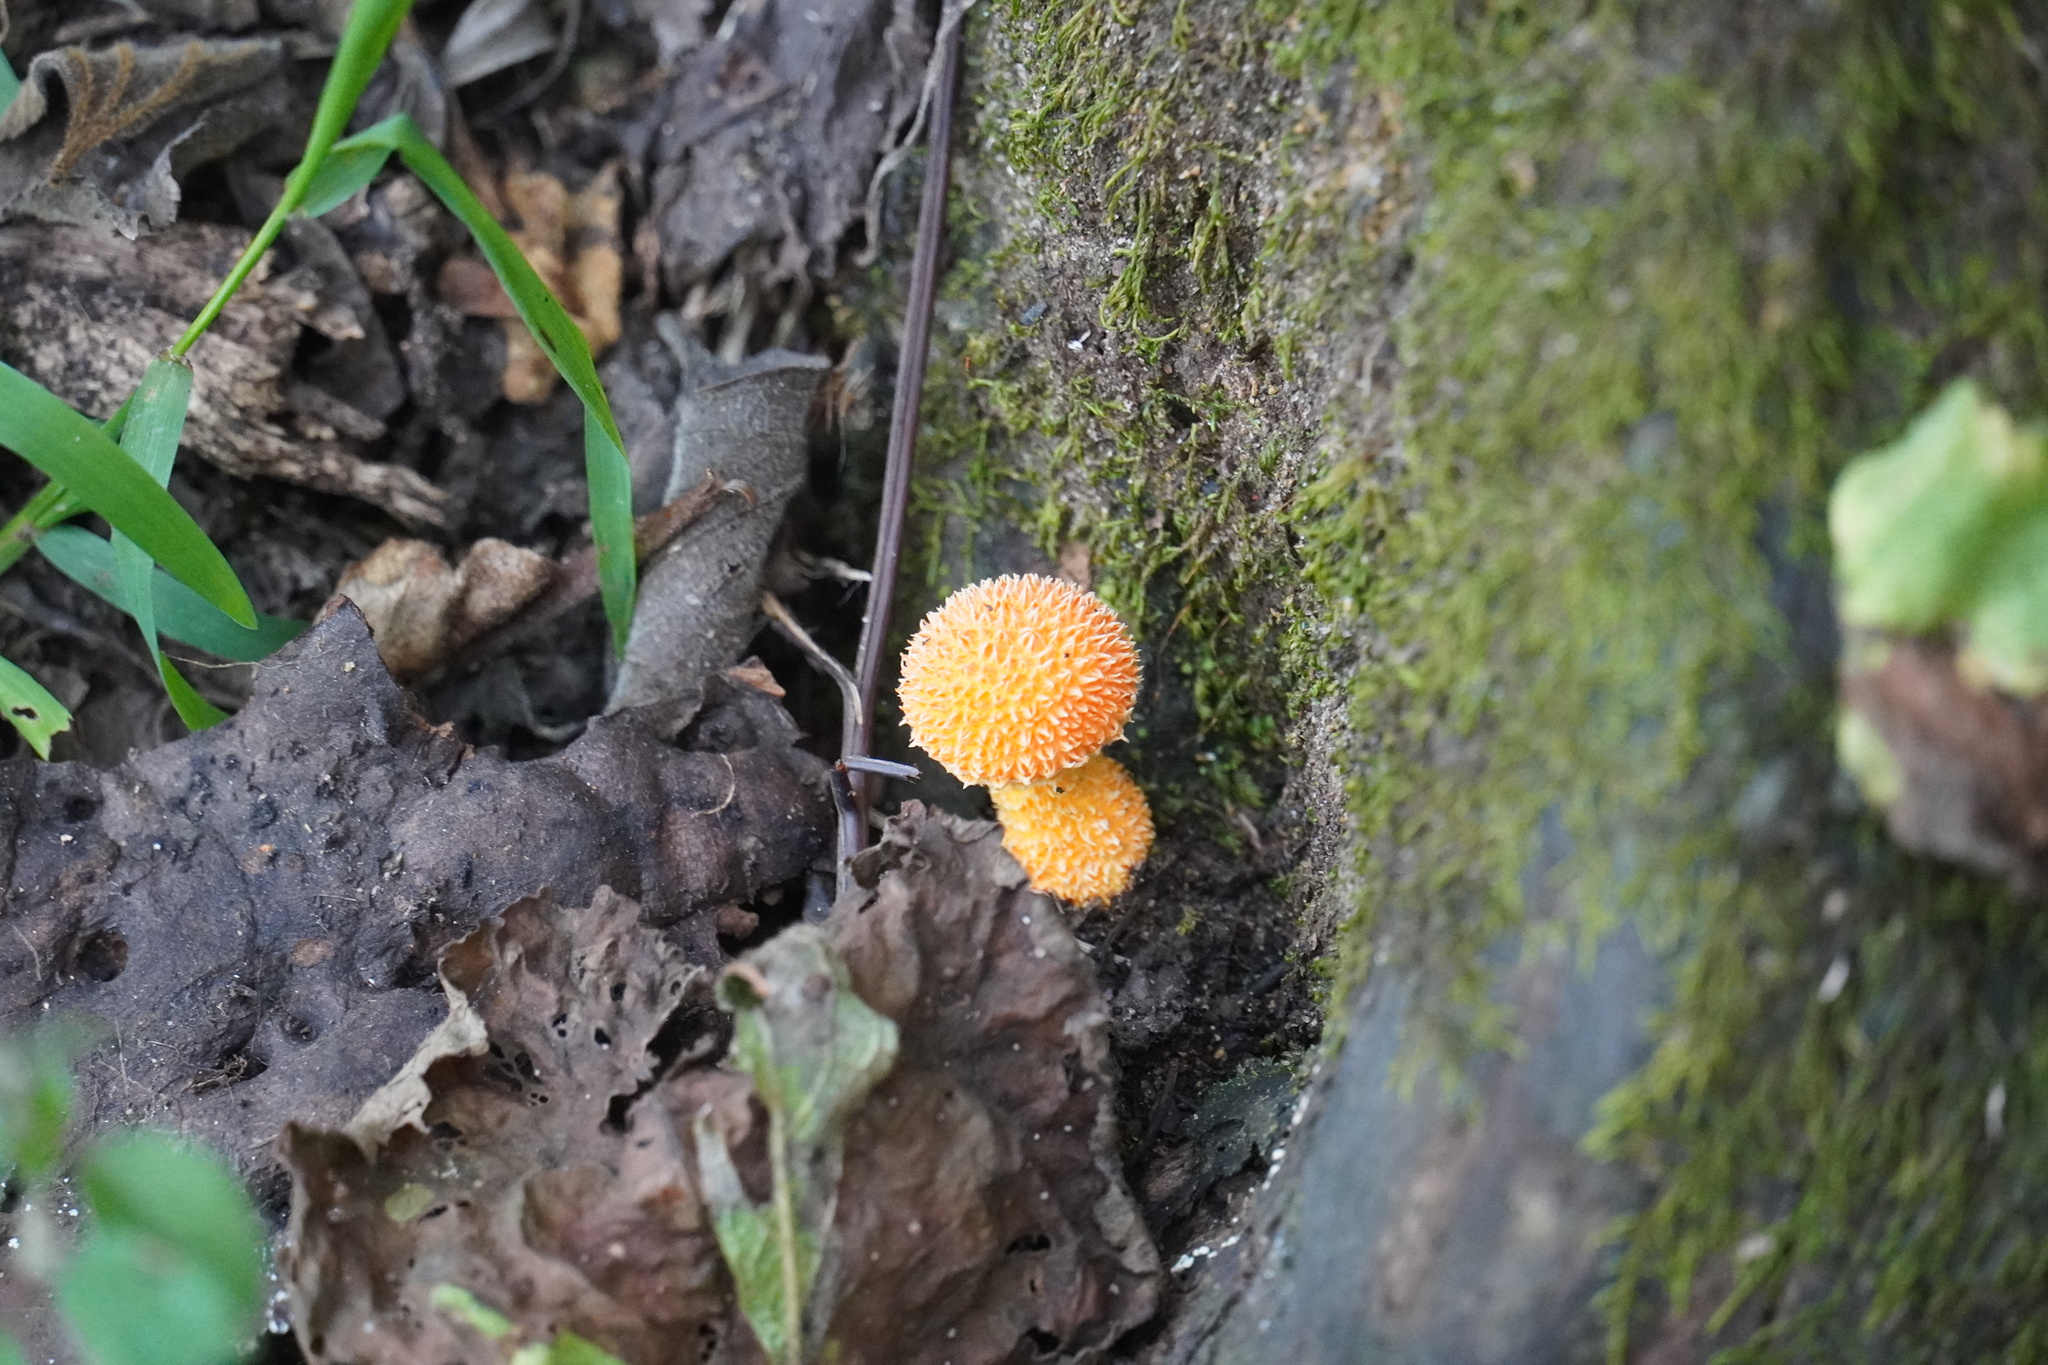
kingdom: Fungi
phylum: Basidiomycota
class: Agaricomycetes
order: Agaricales
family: Physalacriaceae
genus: Cyptotrama
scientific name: Cyptotrama asprata
